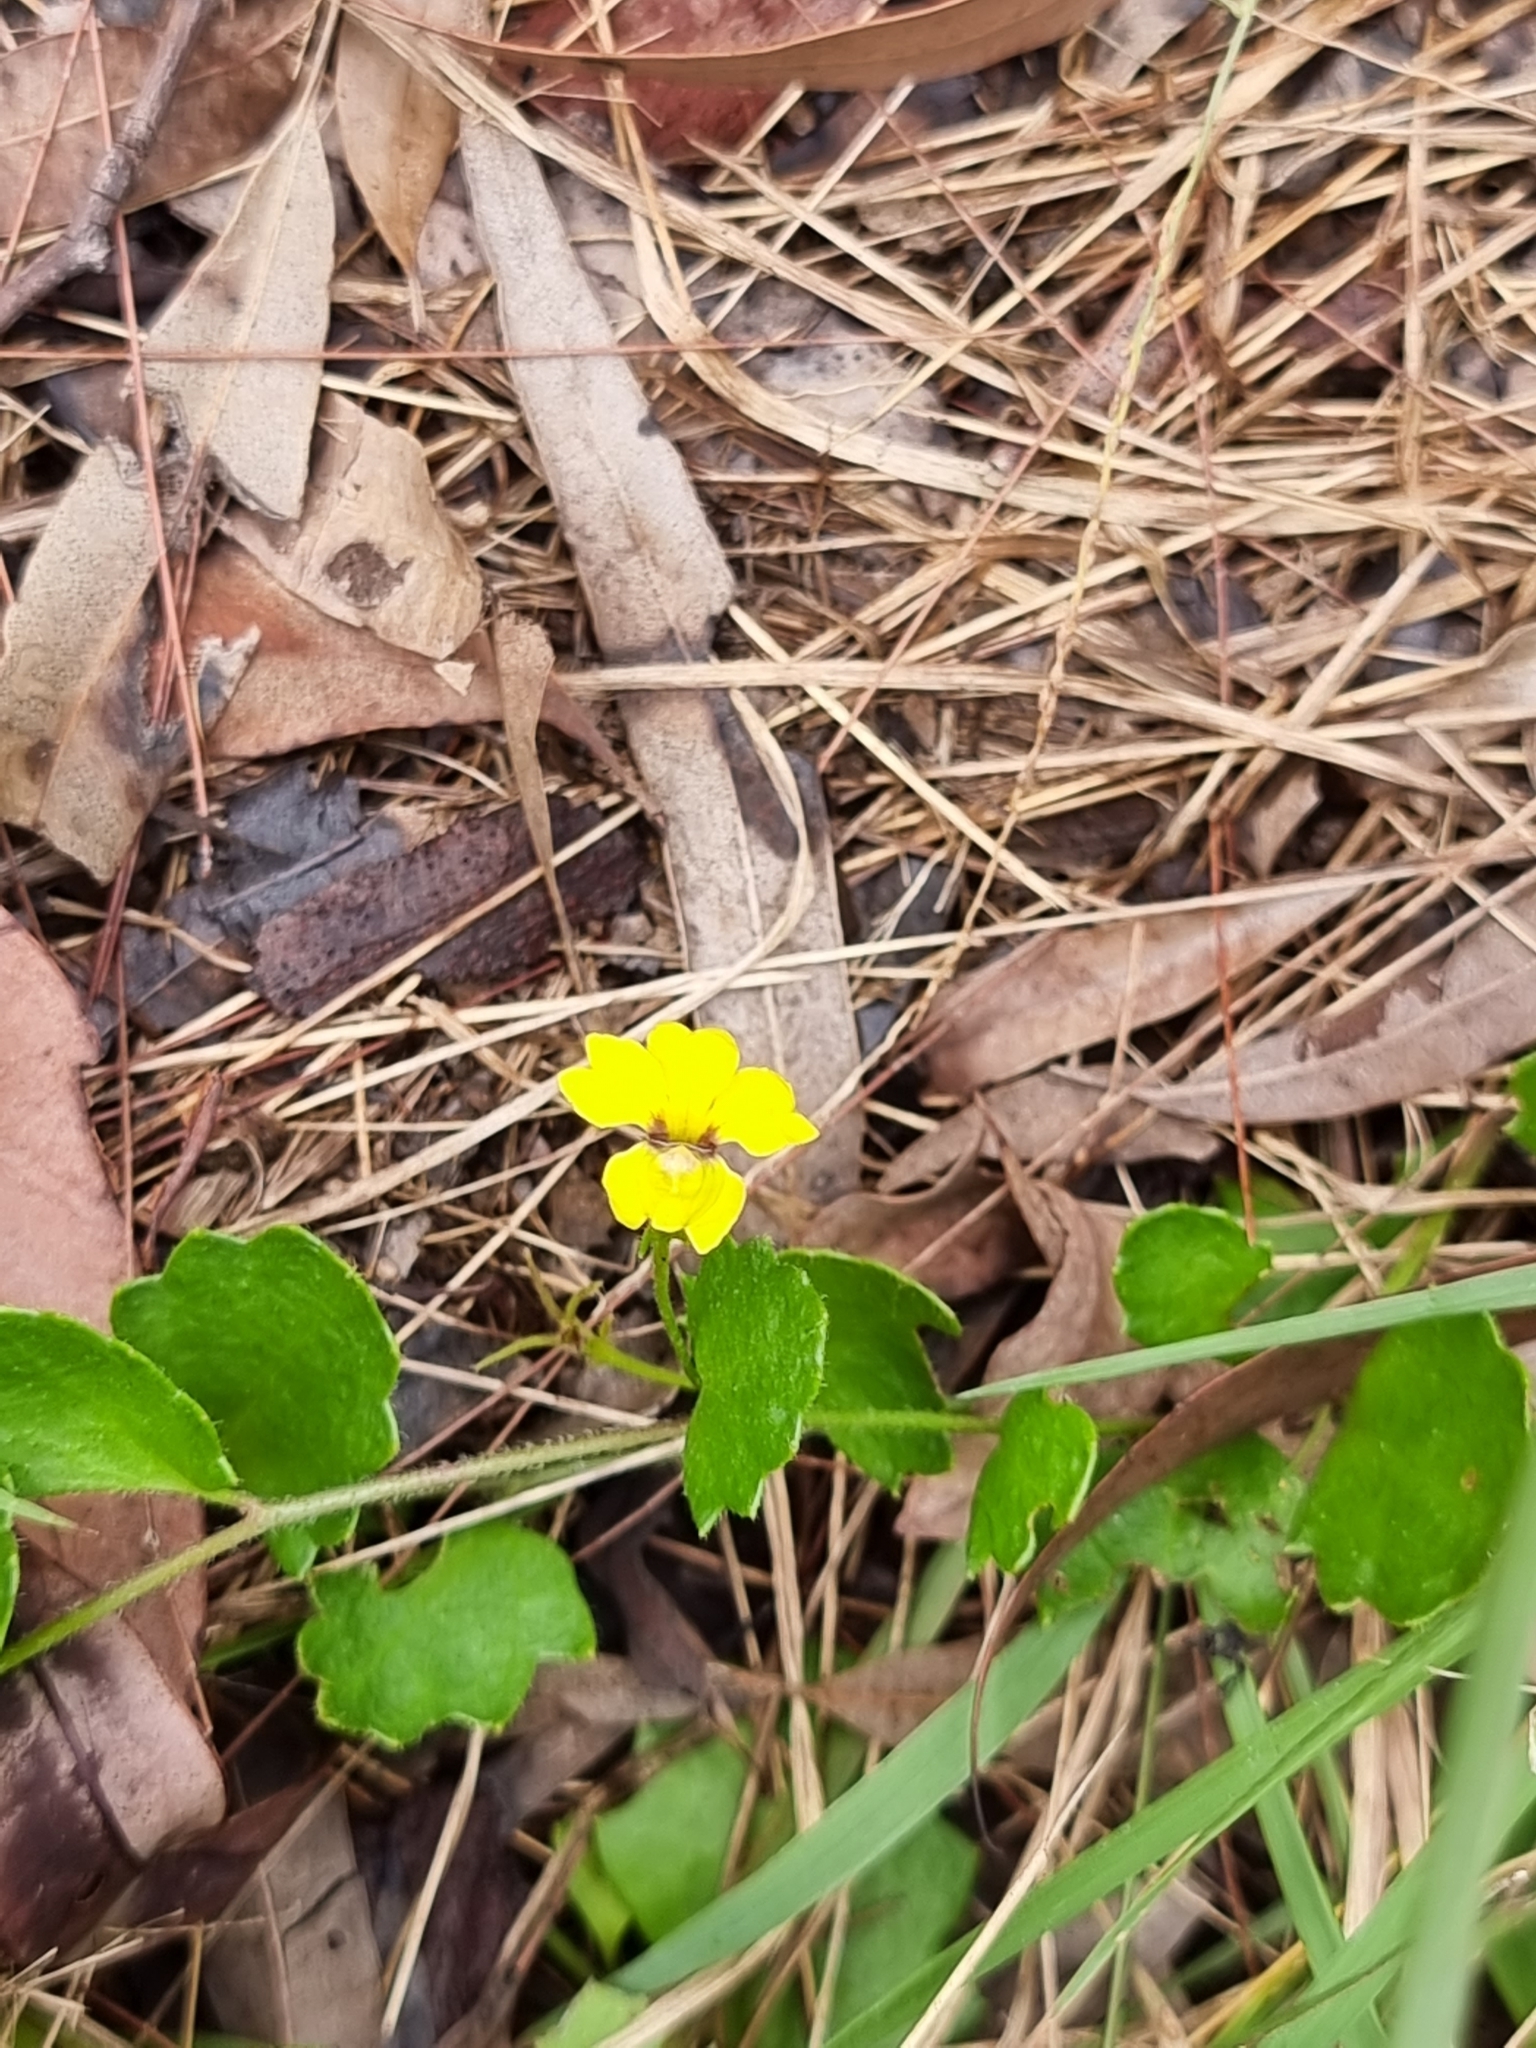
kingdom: Plantae
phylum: Tracheophyta
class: Magnoliopsida
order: Asterales
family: Goodeniaceae
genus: Goodenia
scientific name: Goodenia rotundifolia
